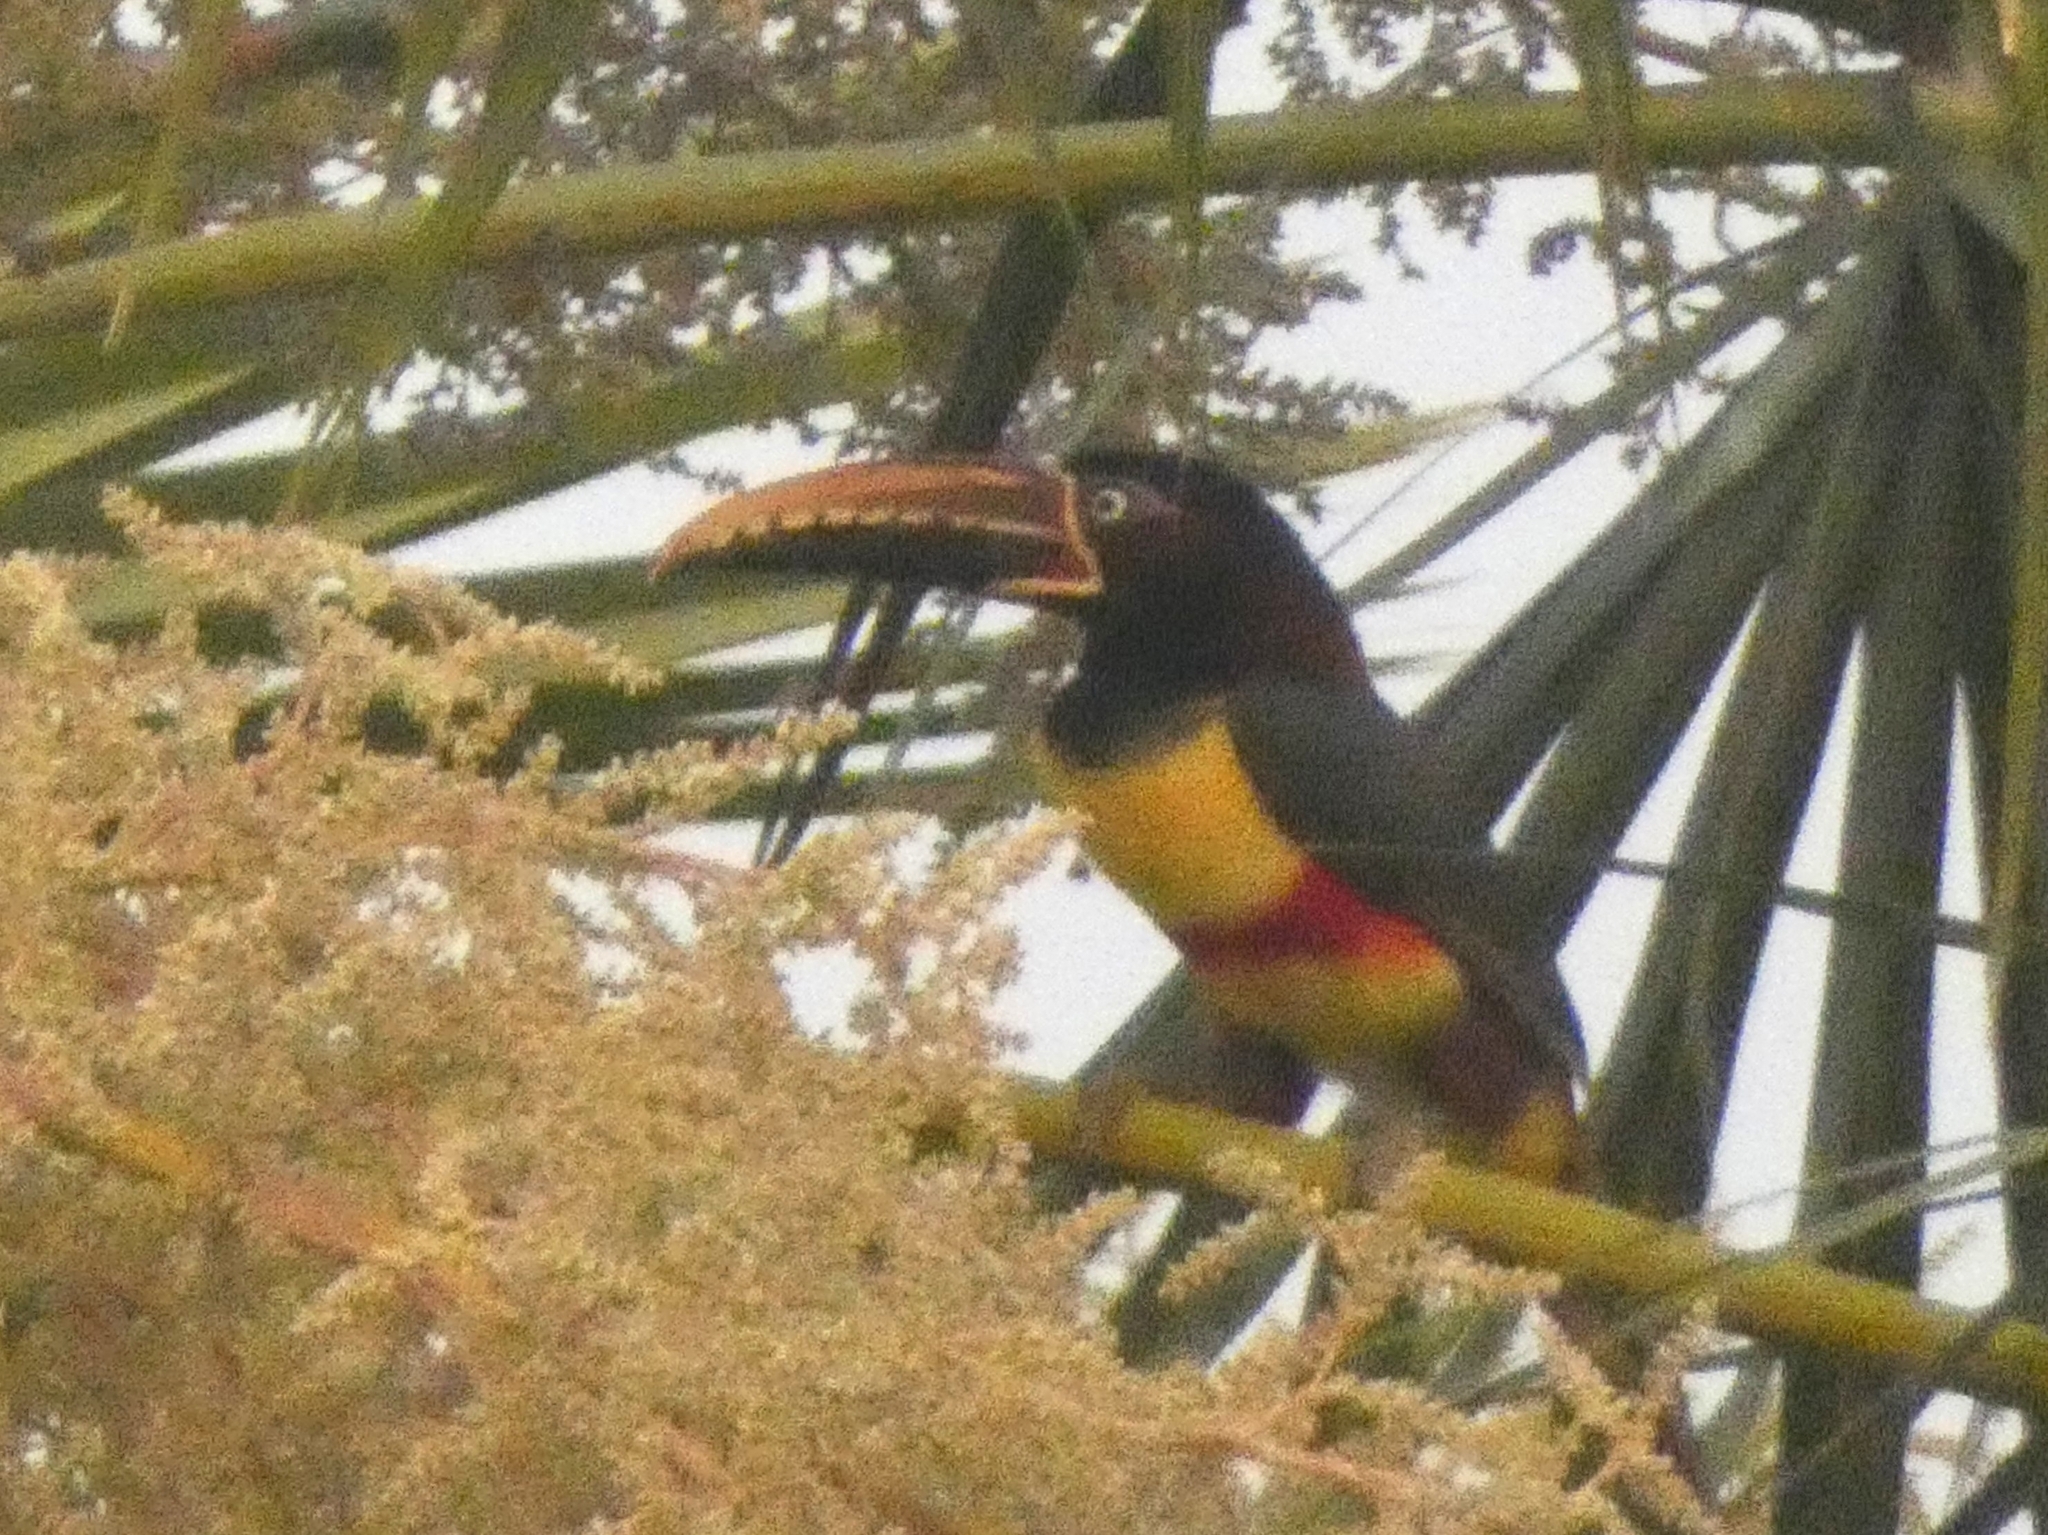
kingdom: Animalia
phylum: Chordata
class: Aves
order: Piciformes
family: Ramphastidae
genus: Pteroglossus
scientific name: Pteroglossus castanotis
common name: Chestnut-eared aracari
